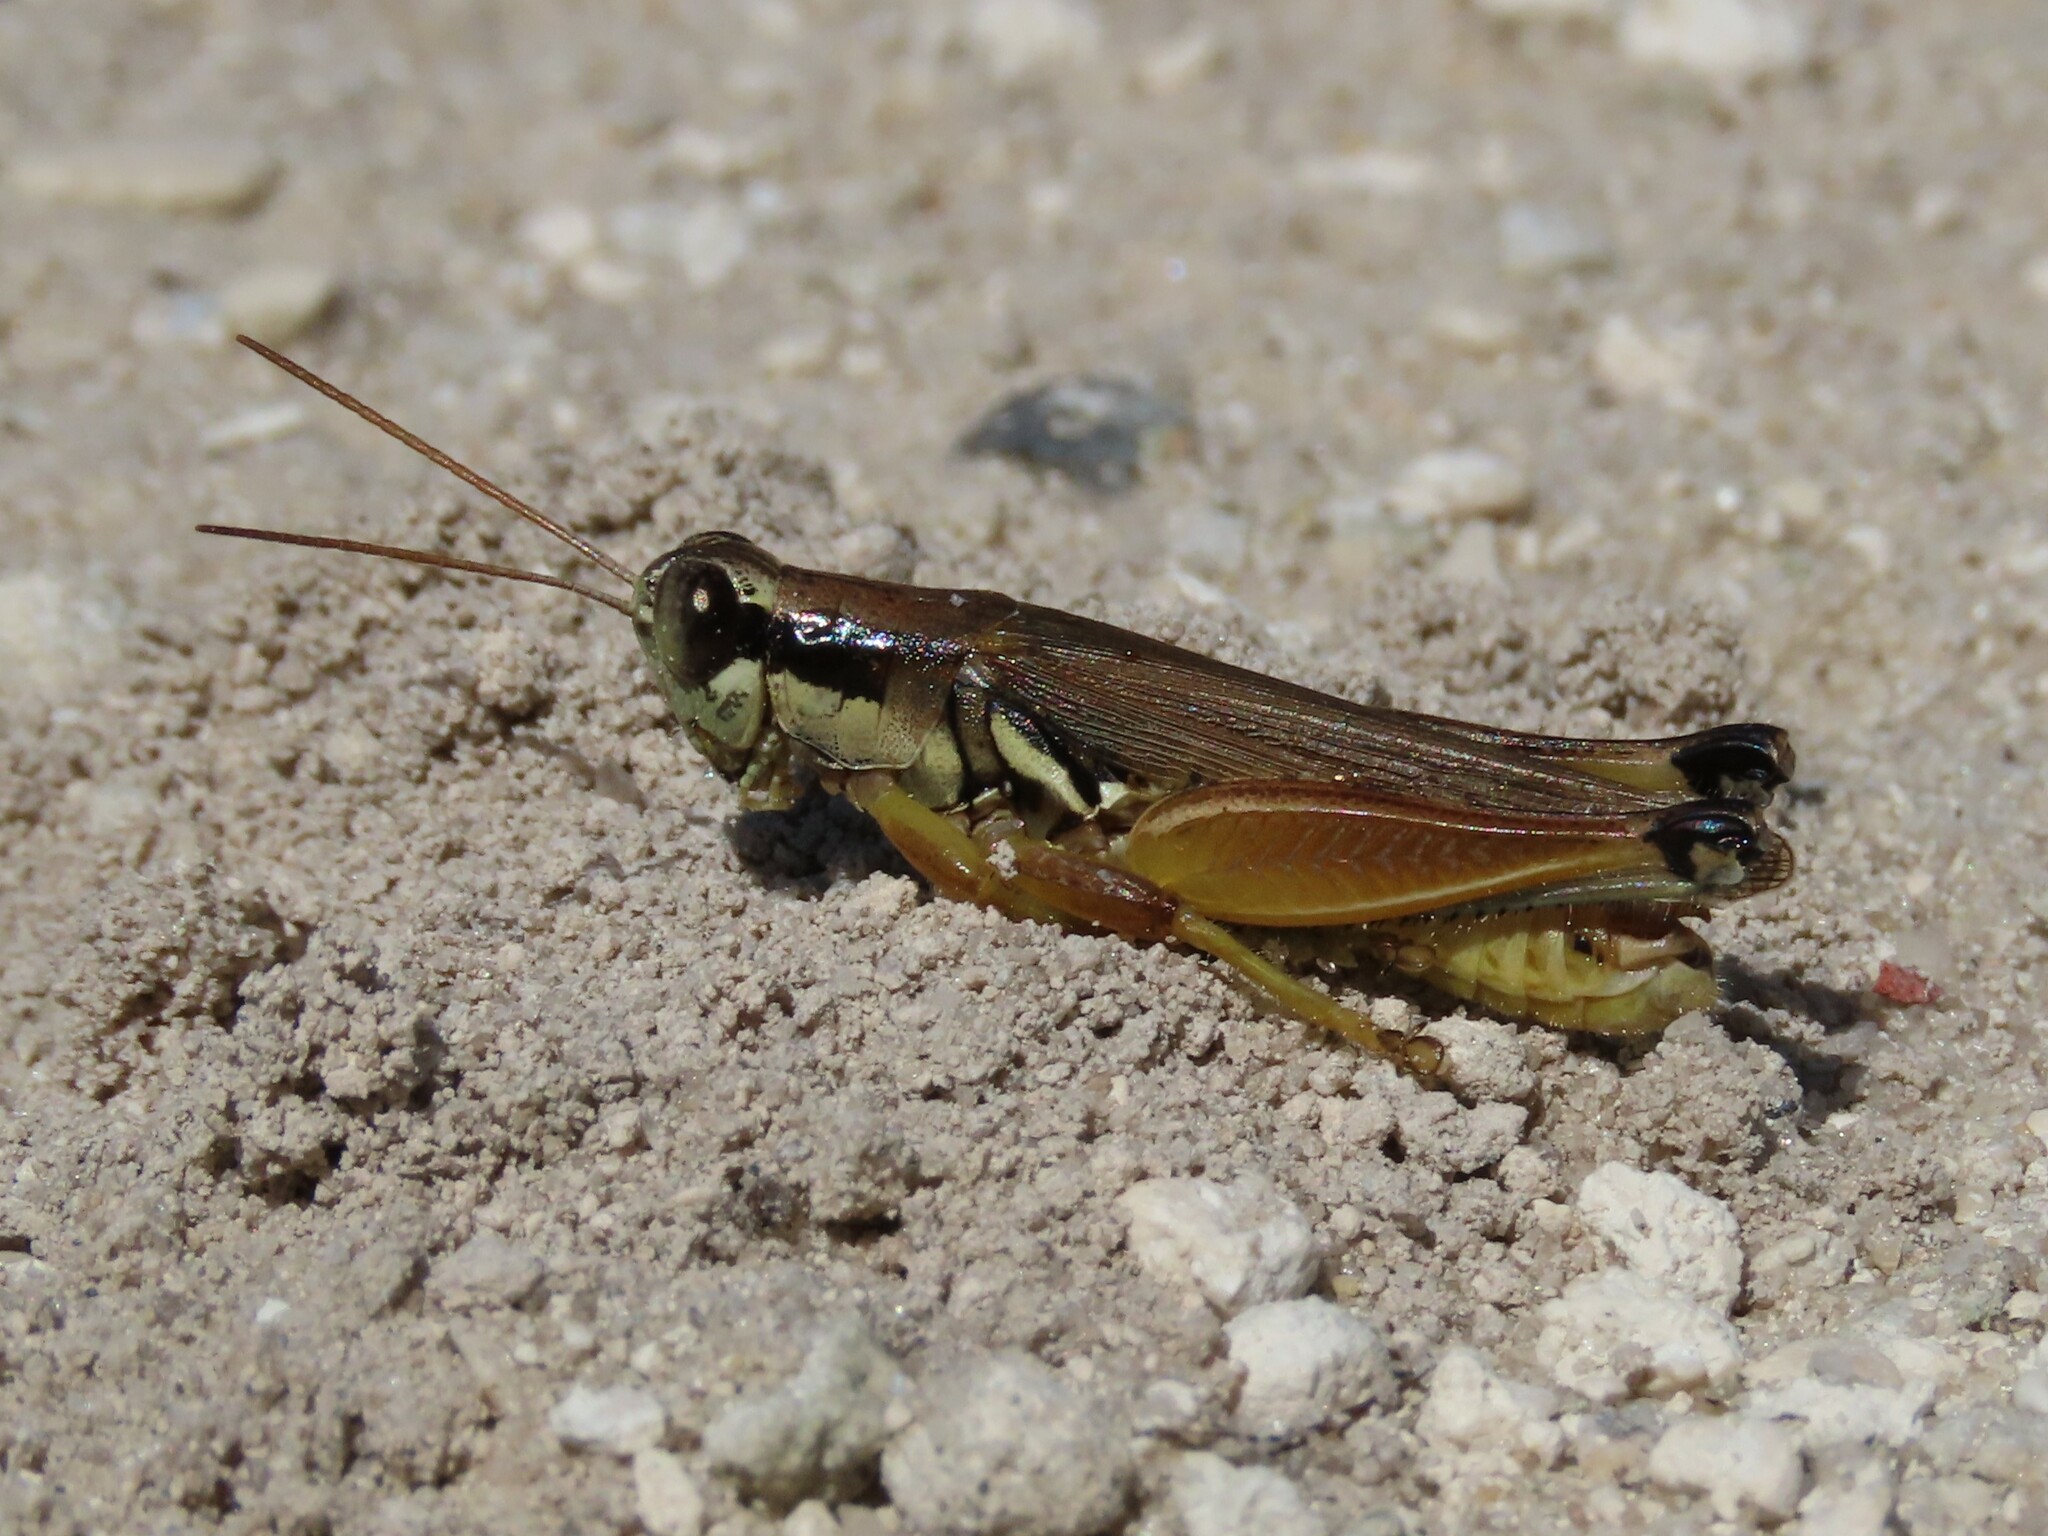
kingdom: Animalia
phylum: Arthropoda
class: Insecta
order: Orthoptera
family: Acrididae
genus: Paroxya
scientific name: Paroxya atlantica
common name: Atlantic grasshopper
